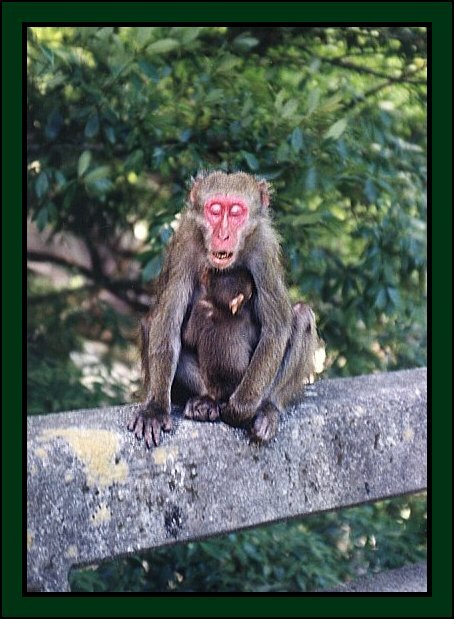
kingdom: Animalia
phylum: Chordata
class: Mammalia
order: Primates
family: Cercopithecidae
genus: Macaca
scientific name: Macaca fuscata
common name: Japanese macaque
